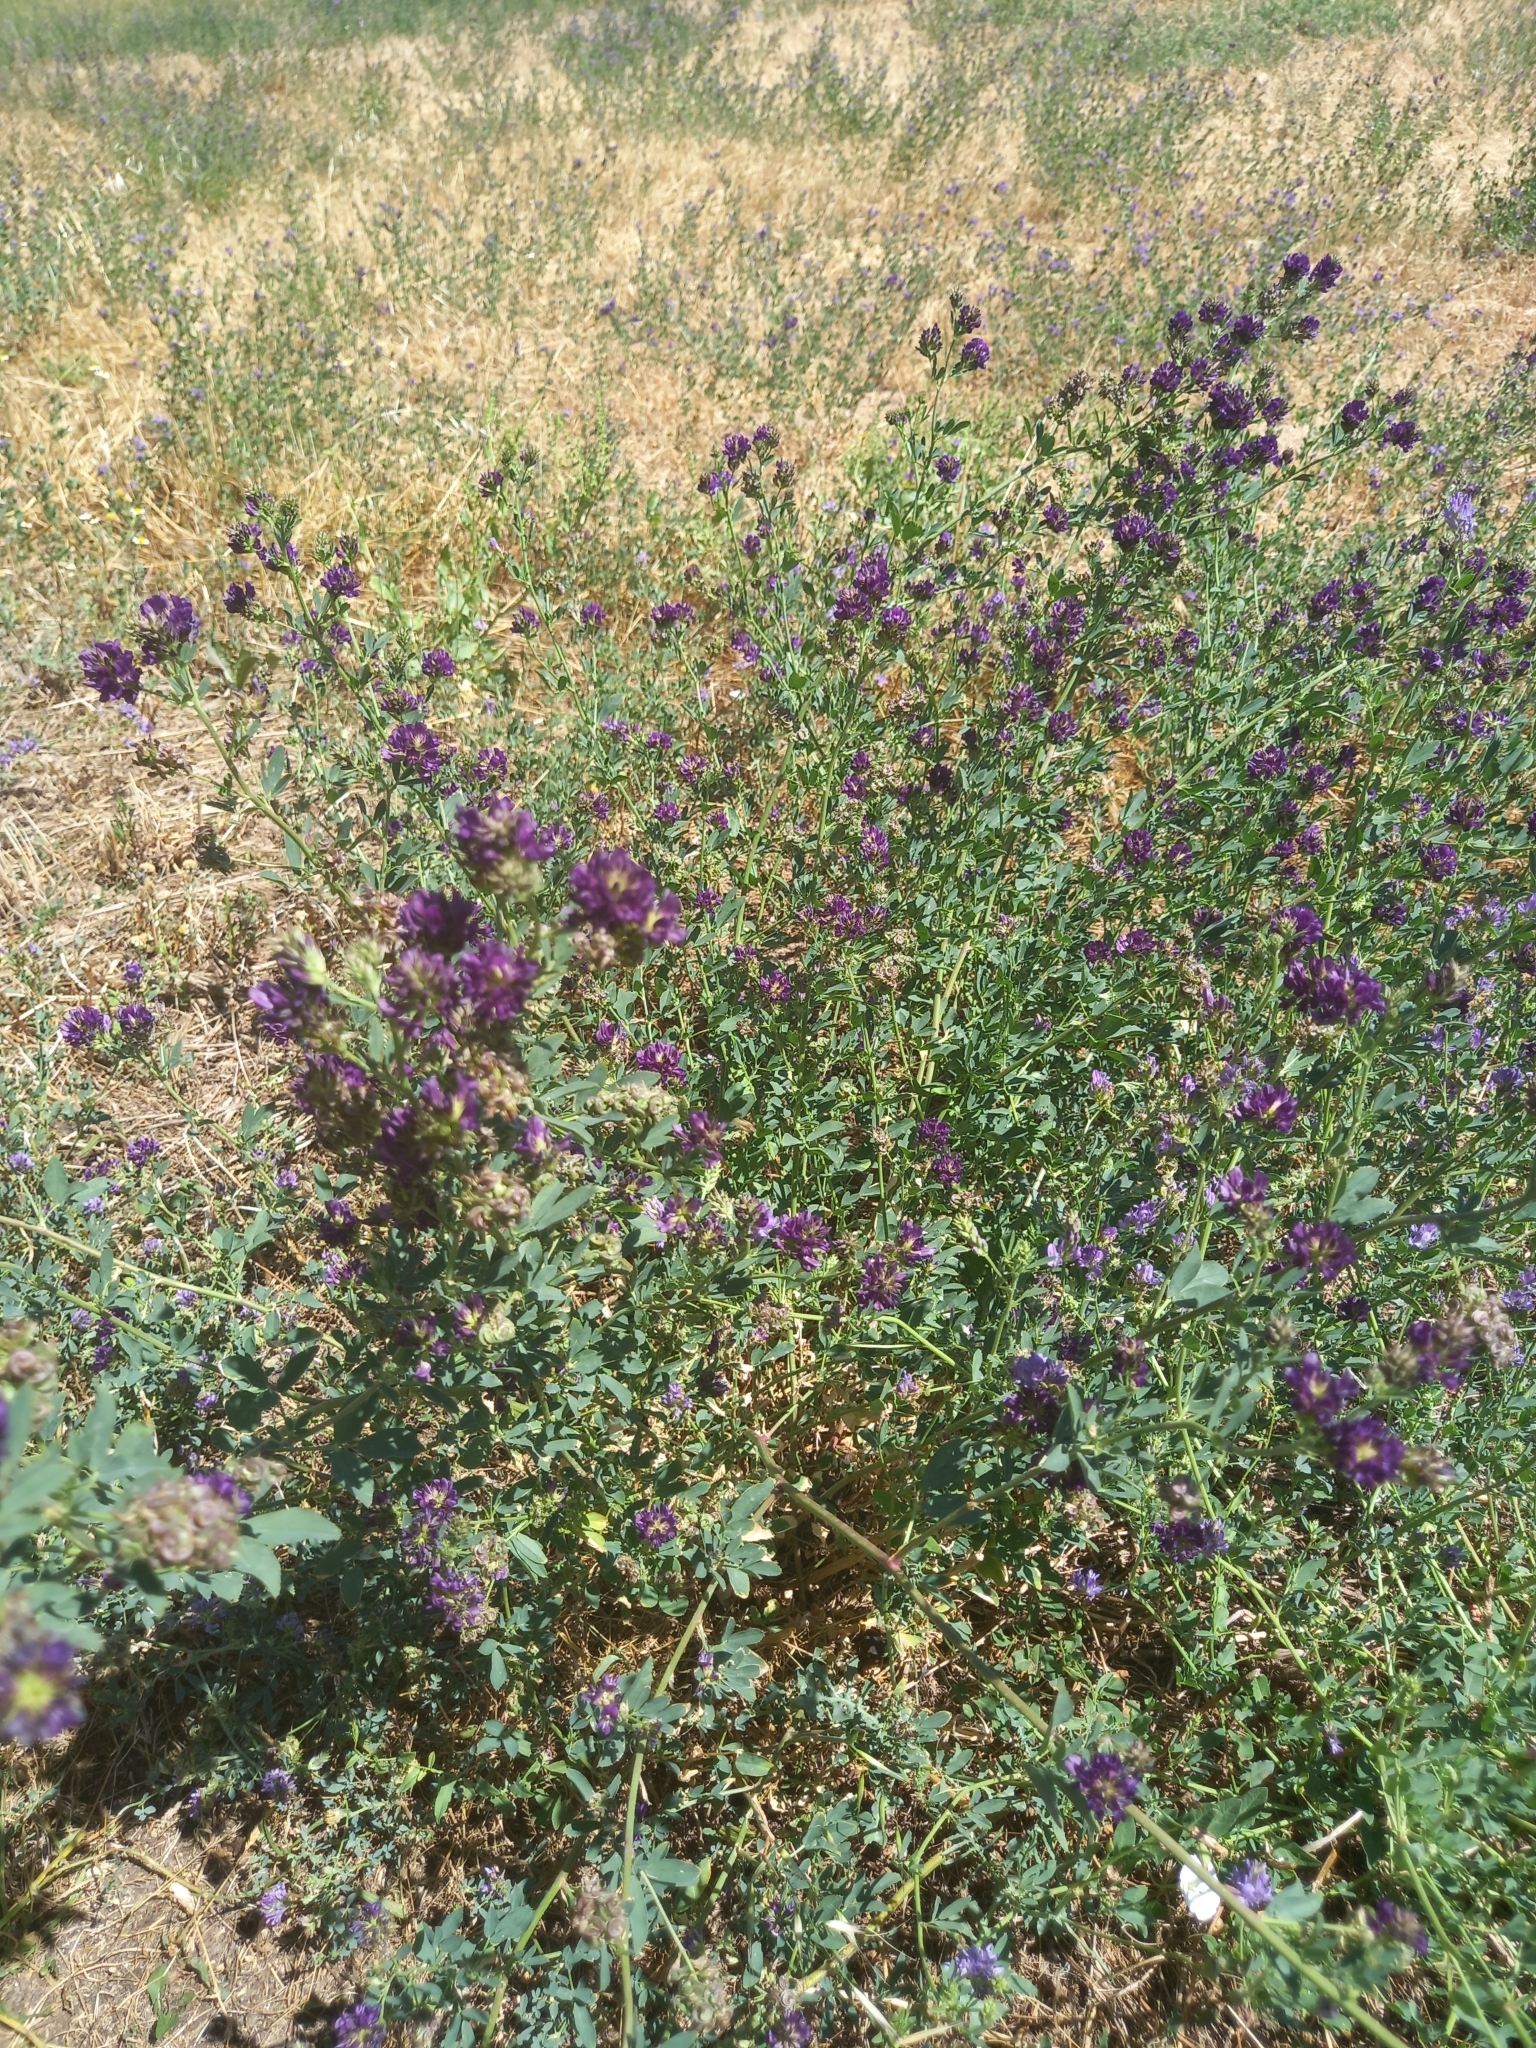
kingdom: Plantae
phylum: Tracheophyta
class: Magnoliopsida
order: Fabales
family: Fabaceae
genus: Medicago
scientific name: Medicago sativa
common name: Alfalfa
